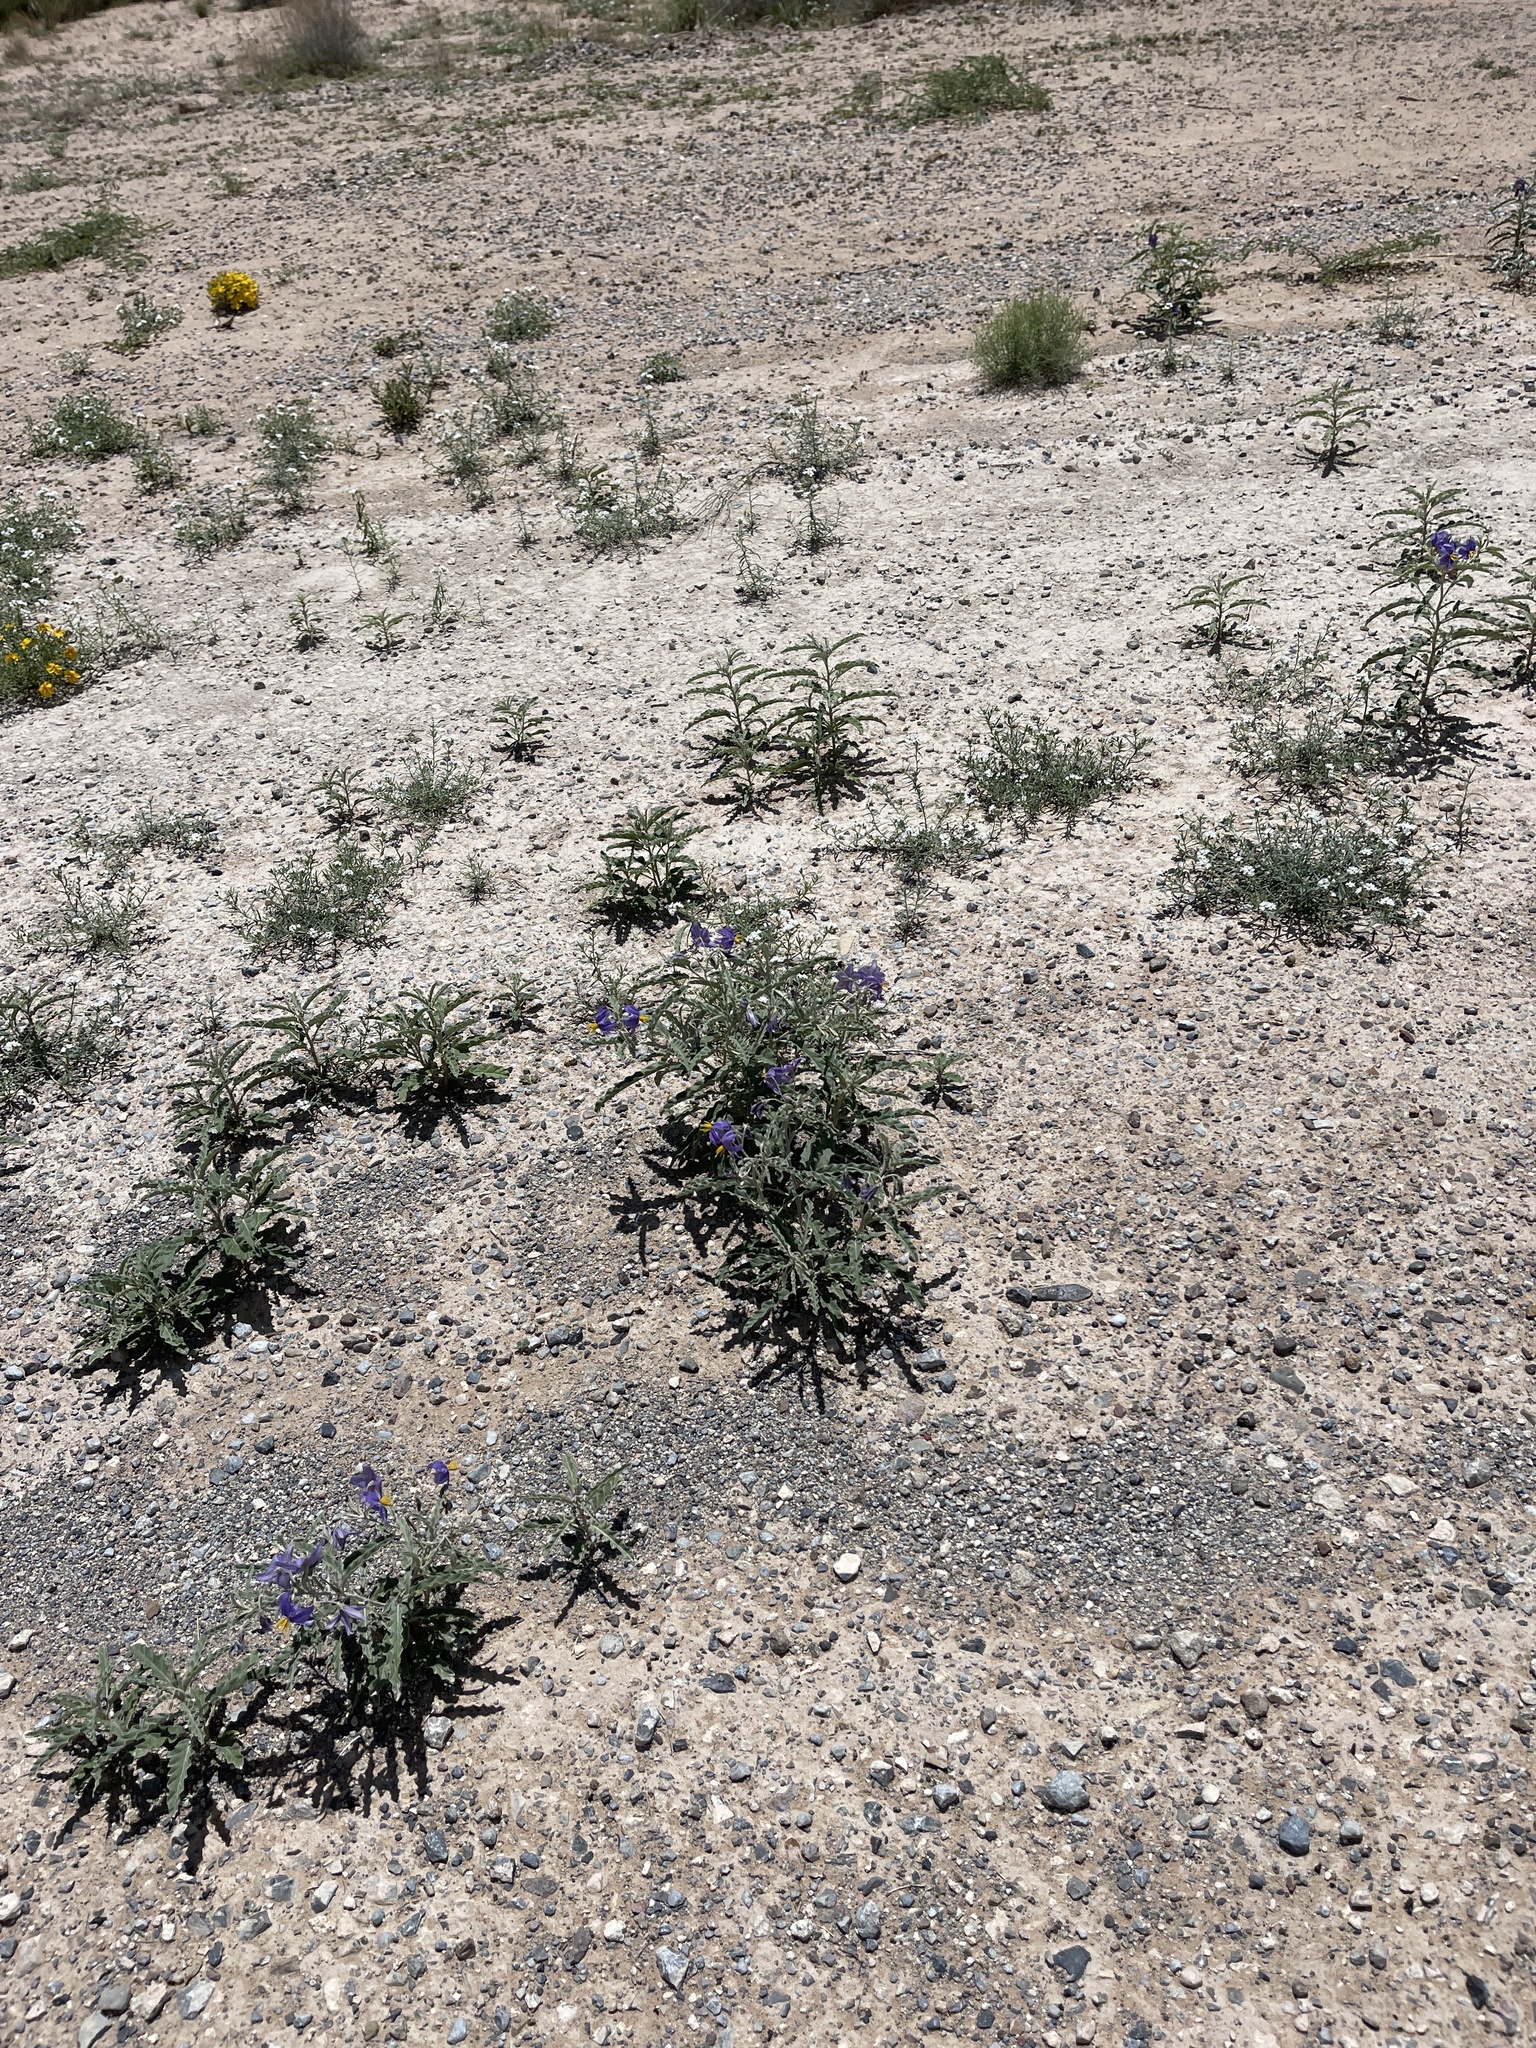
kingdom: Plantae
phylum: Tracheophyta
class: Magnoliopsida
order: Solanales
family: Solanaceae
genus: Solanum
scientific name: Solanum elaeagnifolium
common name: Silverleaf nightshade
